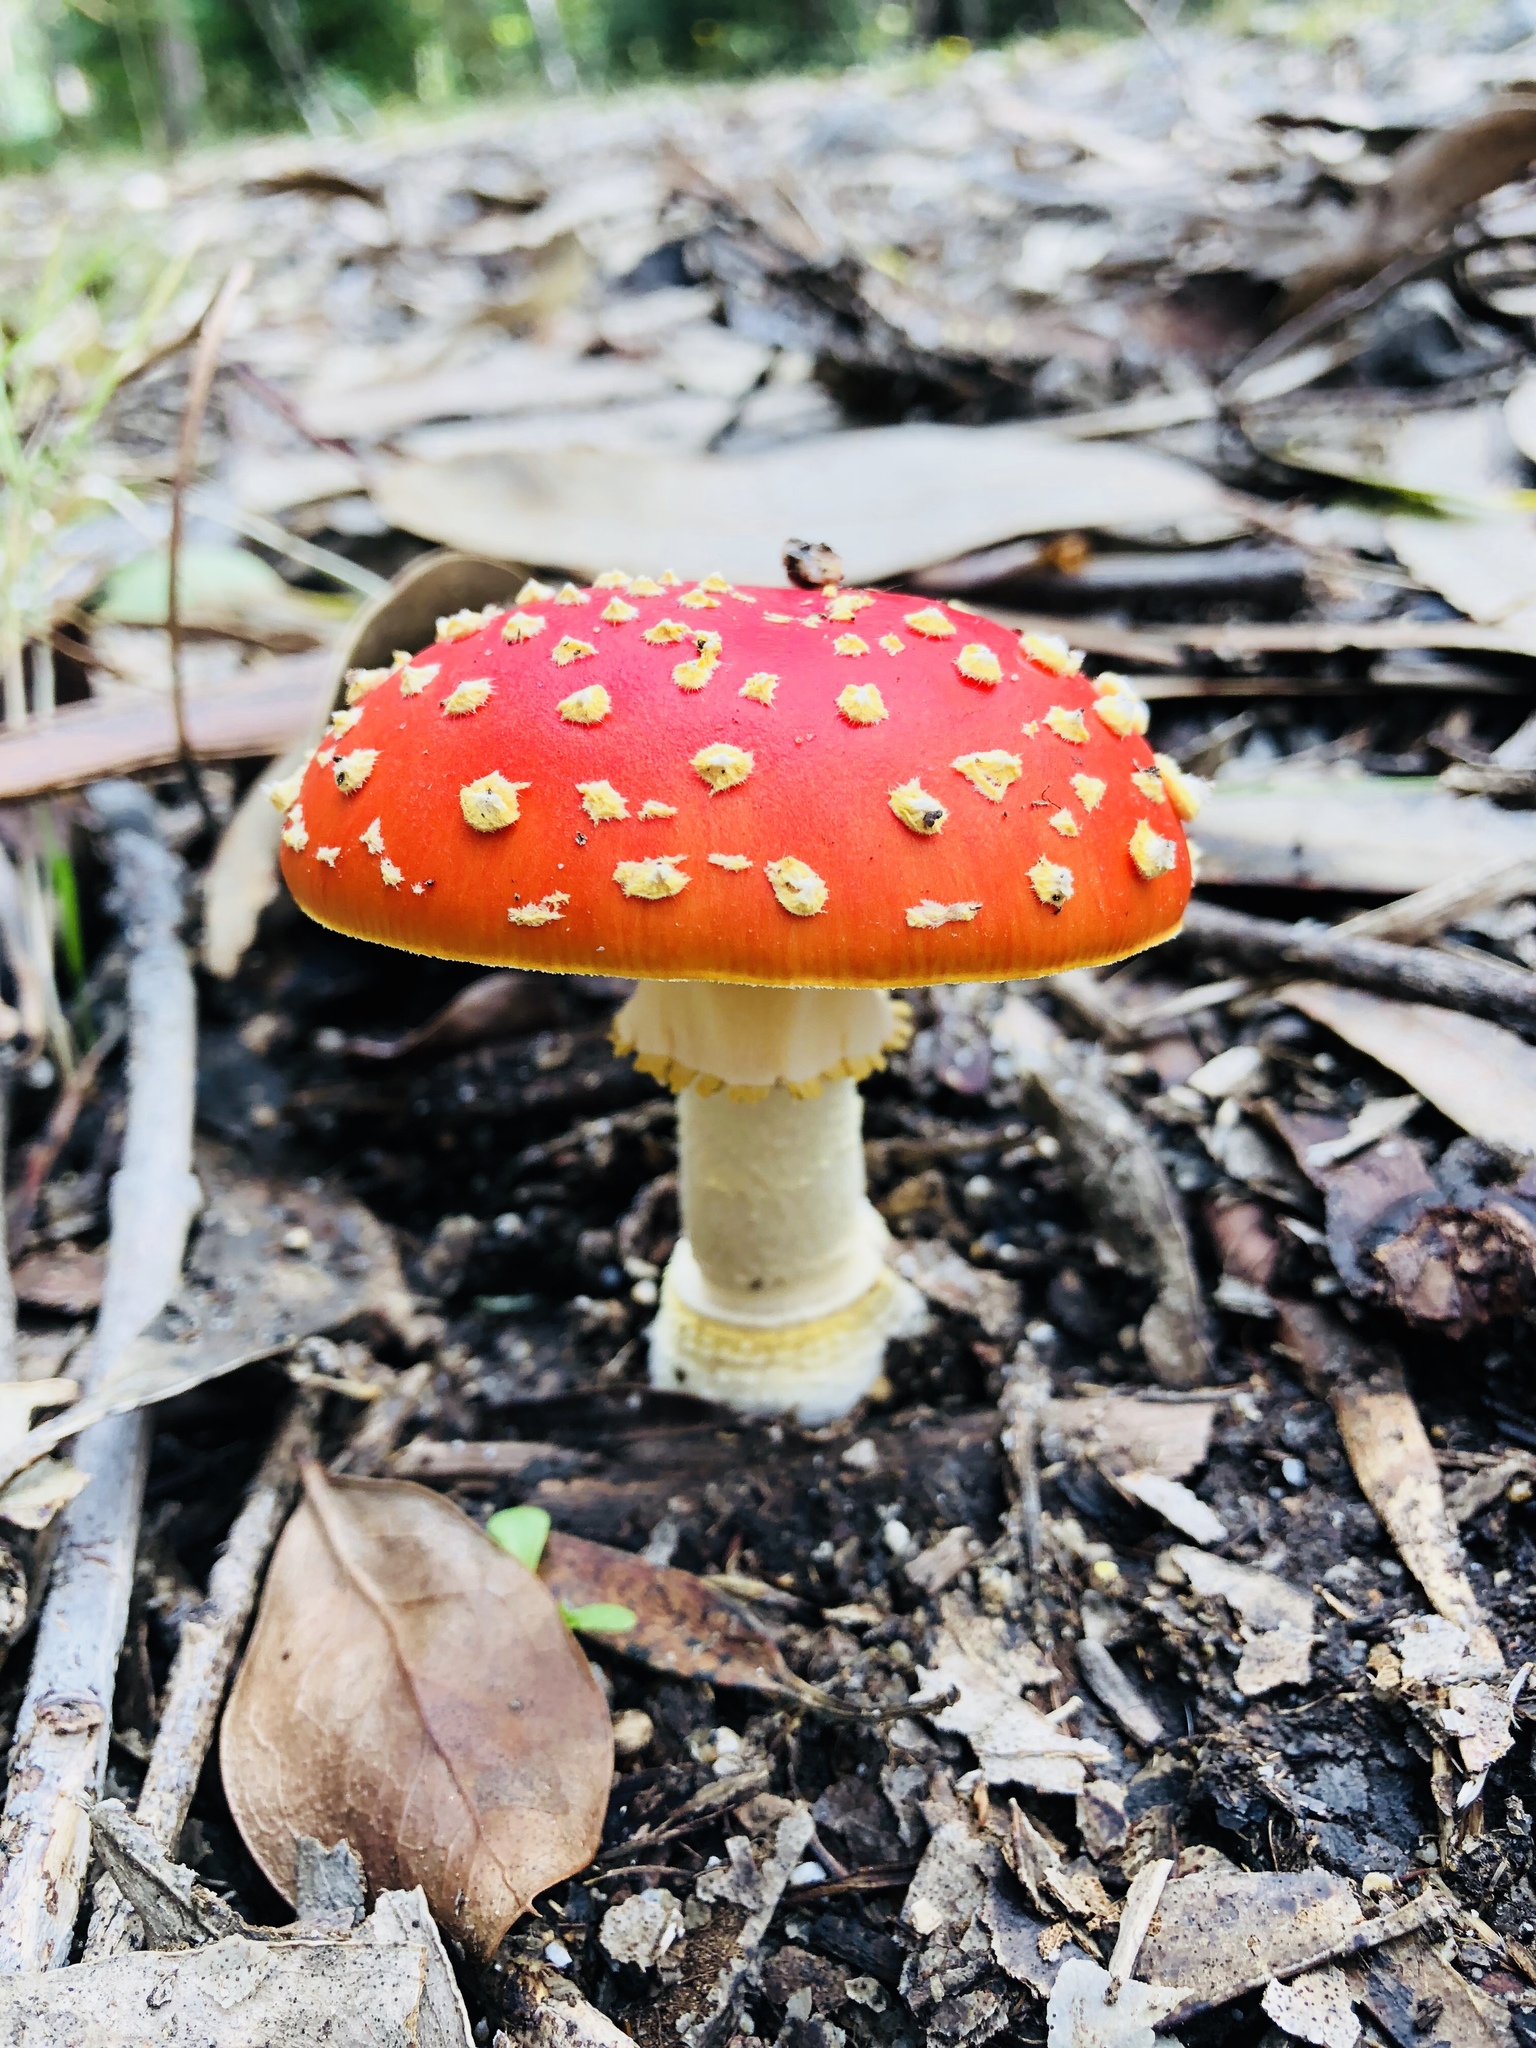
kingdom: Fungi
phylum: Basidiomycota
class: Agaricomycetes
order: Agaricales
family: Amanitaceae
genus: Amanita
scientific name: Amanita muscaria
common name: Fly agaric
